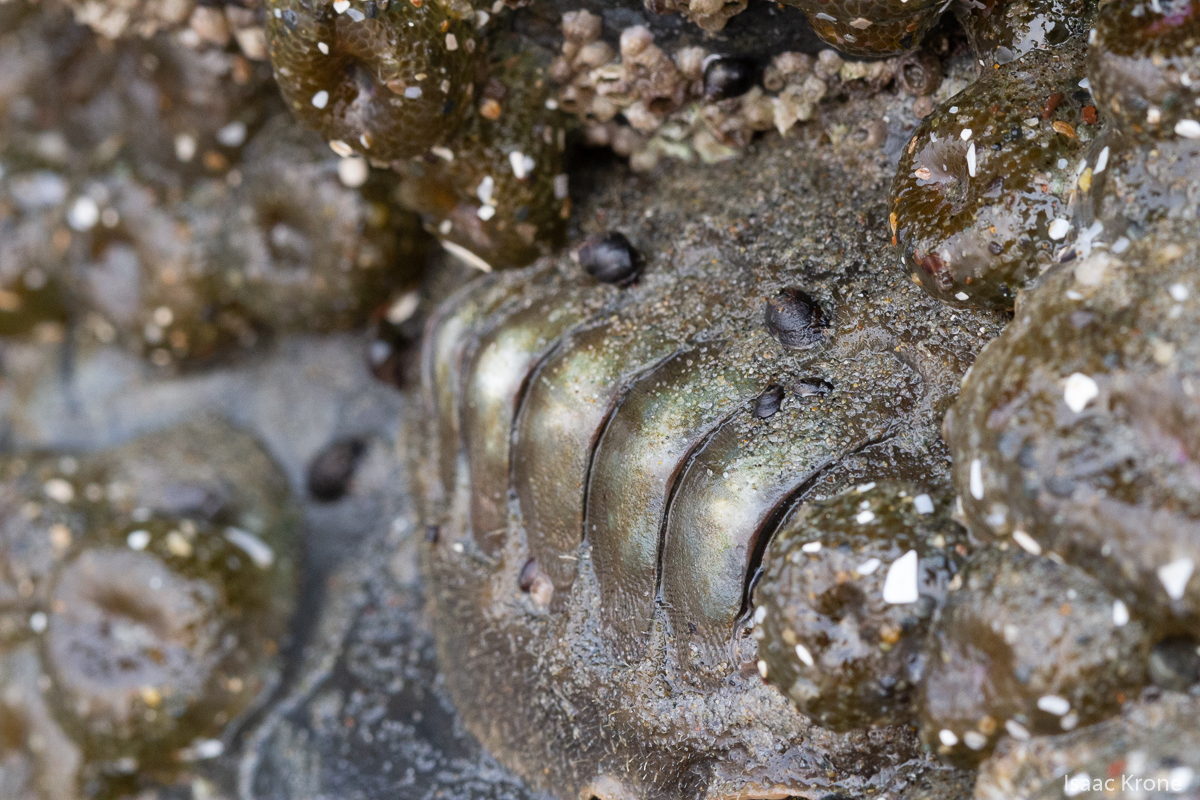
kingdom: Animalia
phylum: Mollusca
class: Polyplacophora
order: Chitonida
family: Mopaliidae
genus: Mopalia
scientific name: Mopalia hindsii
